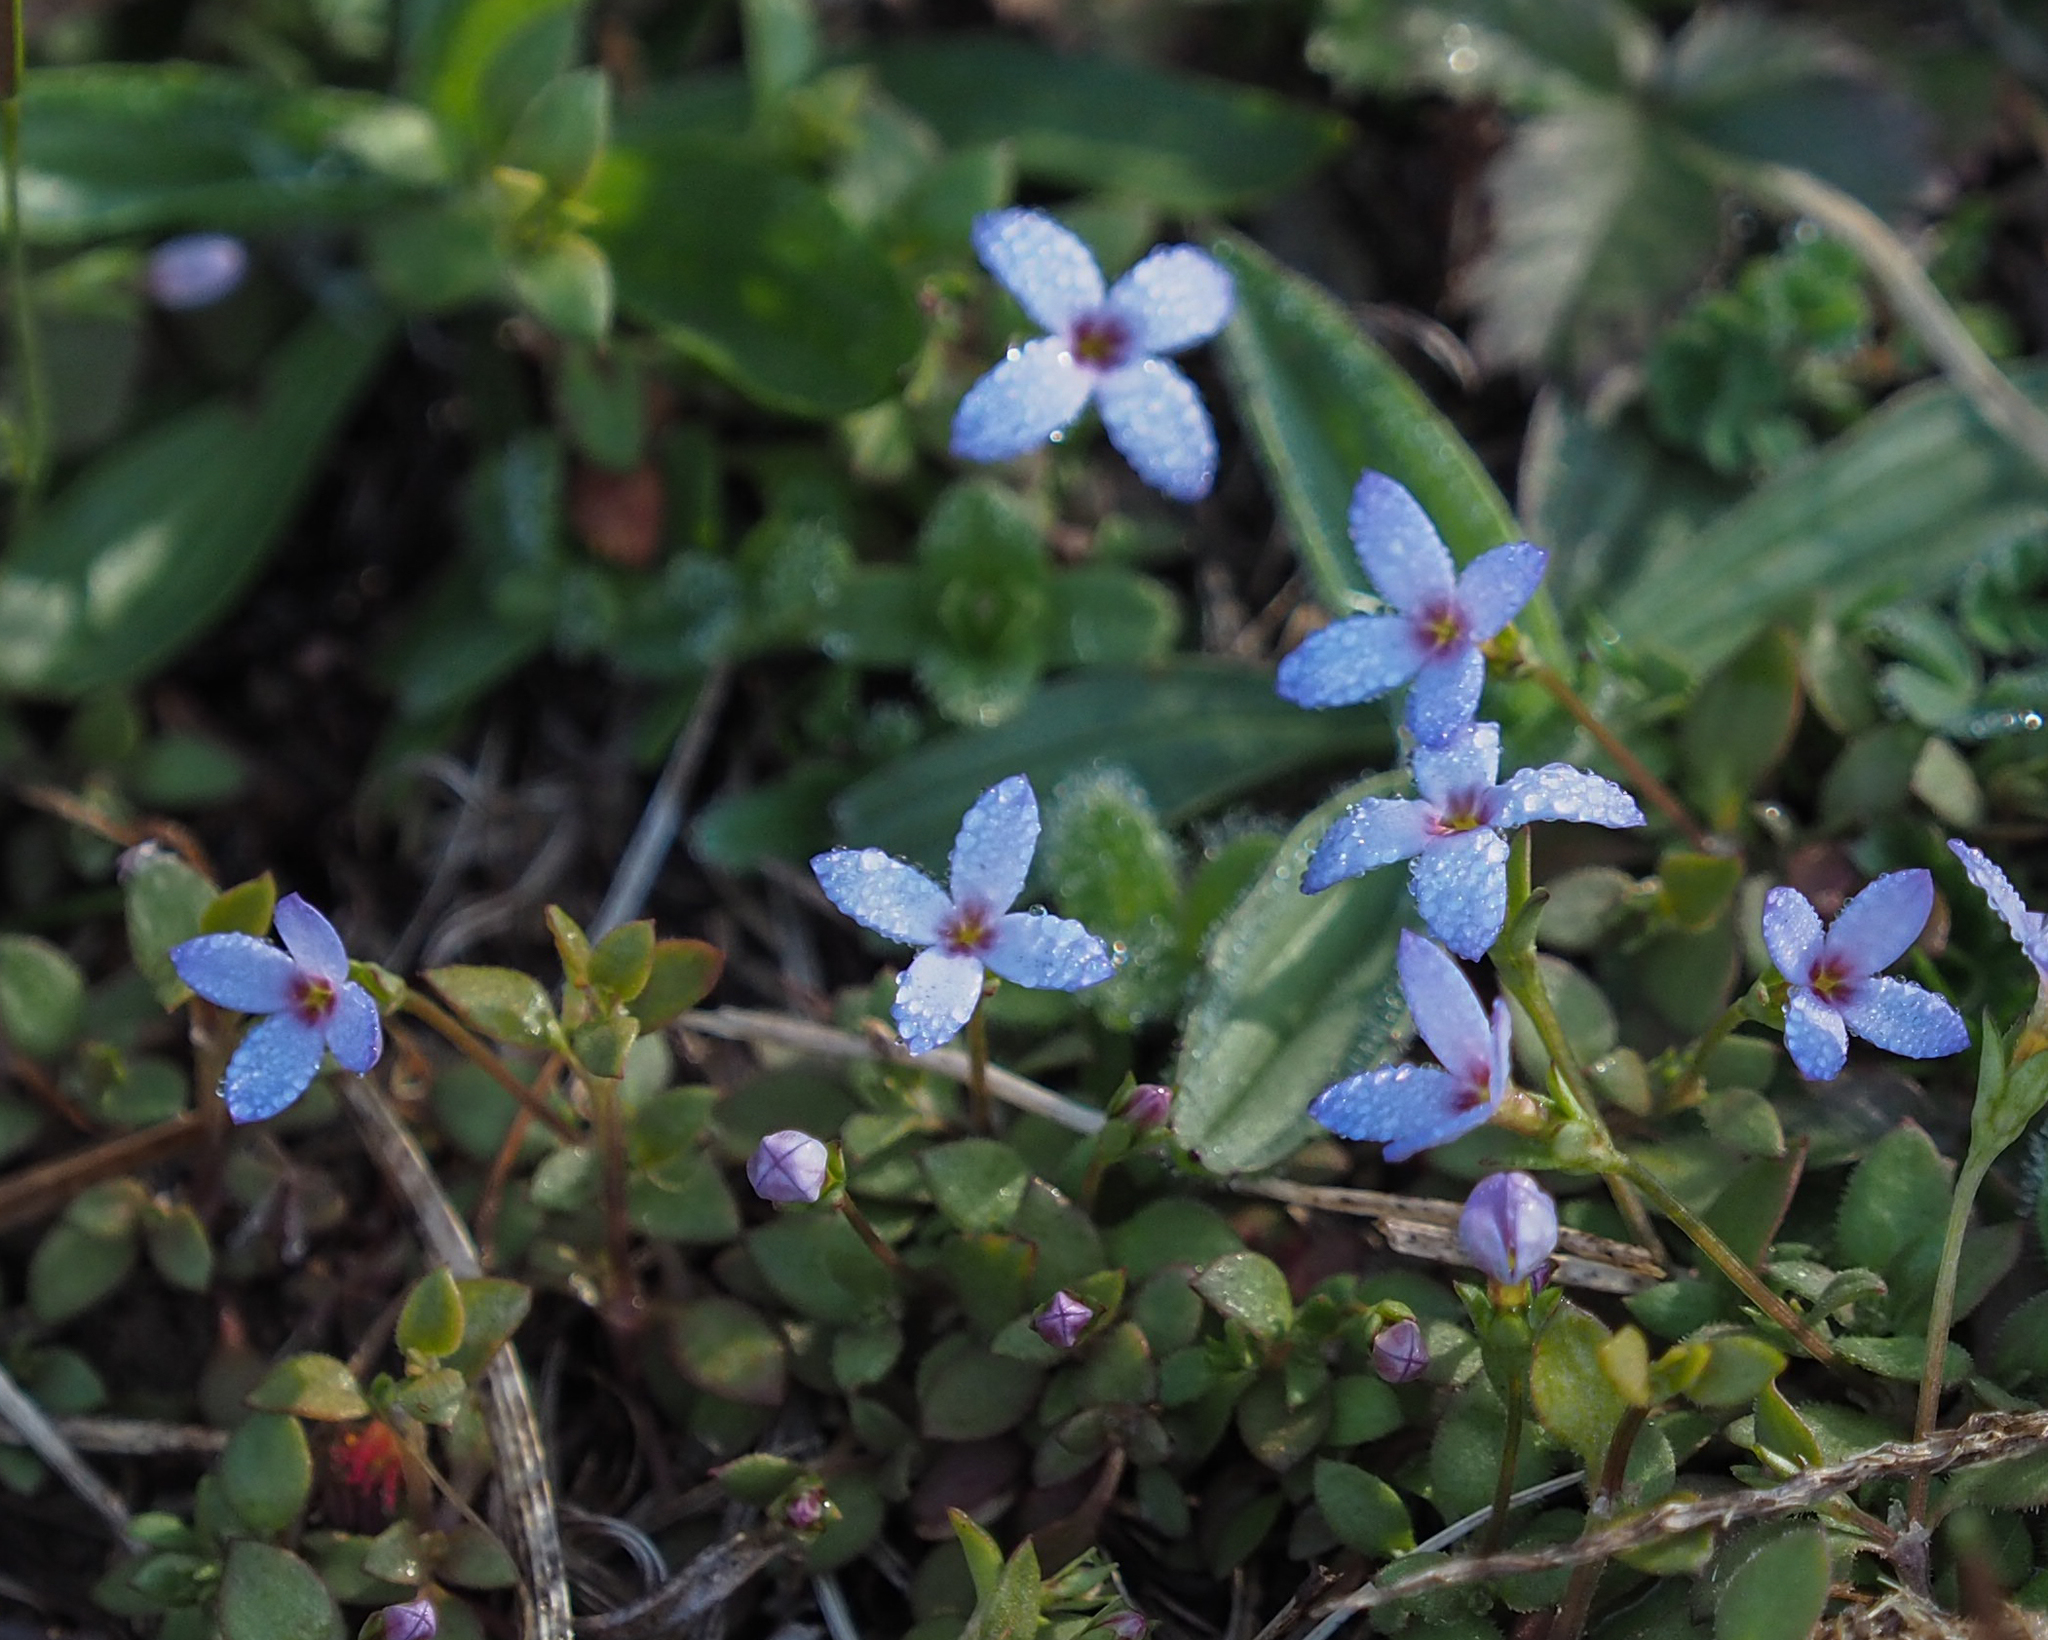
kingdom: Plantae
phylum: Tracheophyta
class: Magnoliopsida
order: Gentianales
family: Rubiaceae
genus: Houstonia
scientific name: Houstonia pusilla
